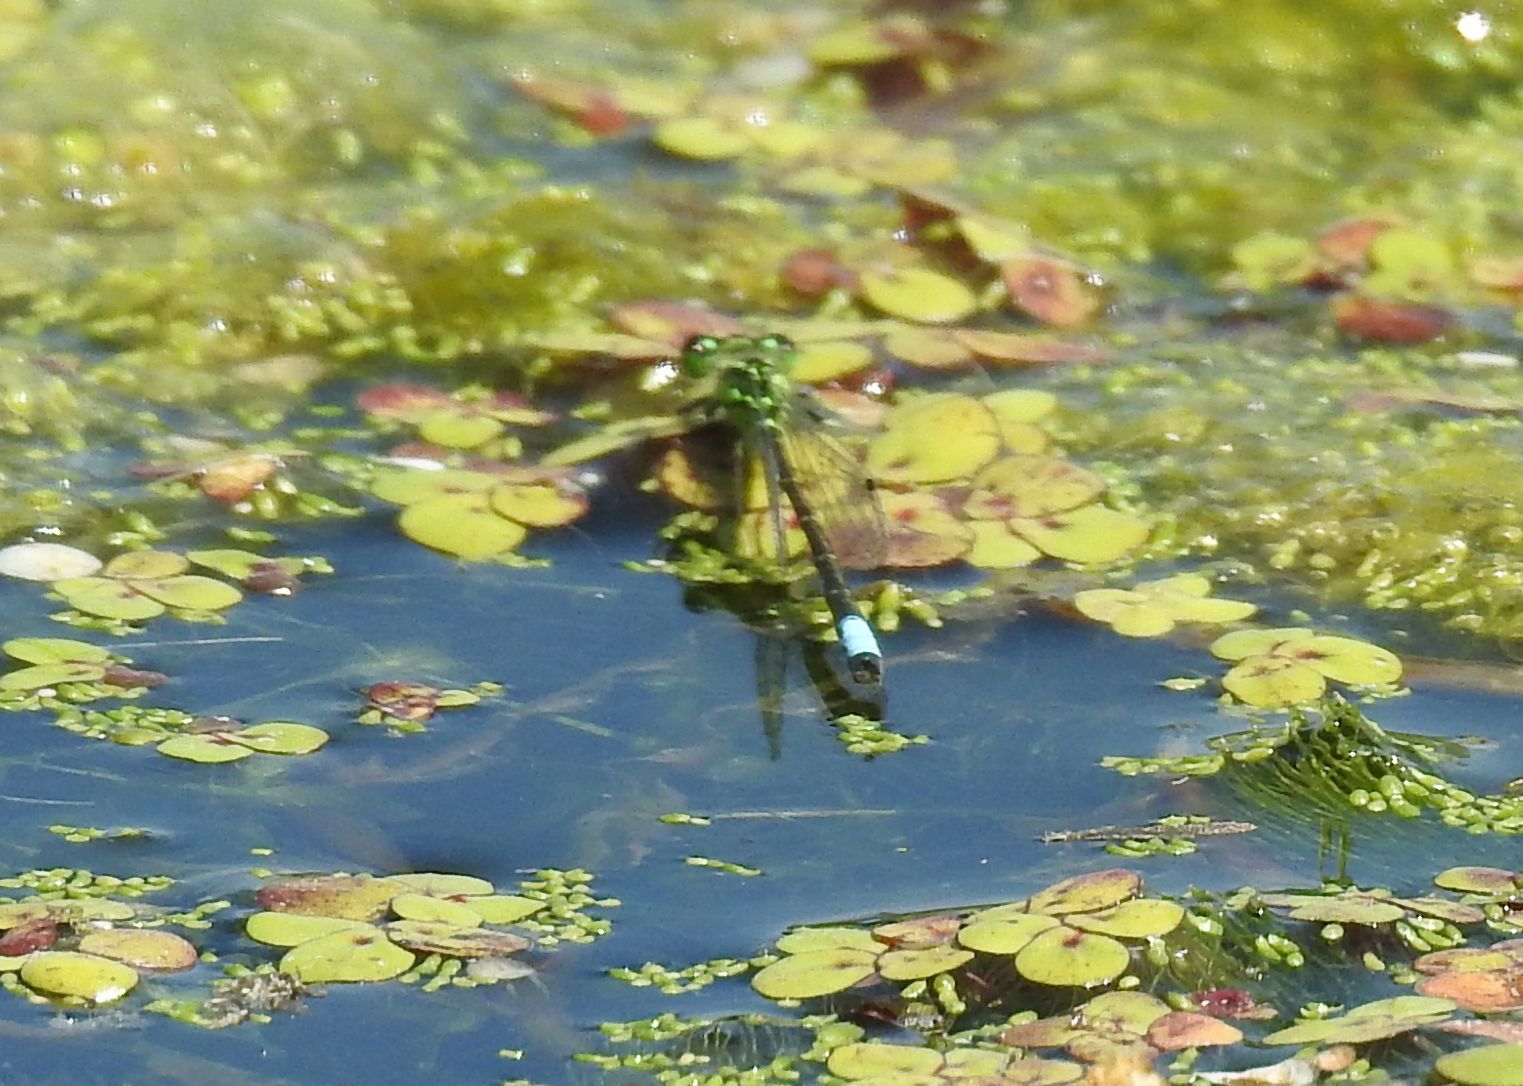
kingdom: Animalia
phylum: Arthropoda
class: Insecta
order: Odonata
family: Coenagrionidae
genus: Ischnura
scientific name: Ischnura verticalis
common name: Eastern forktail
